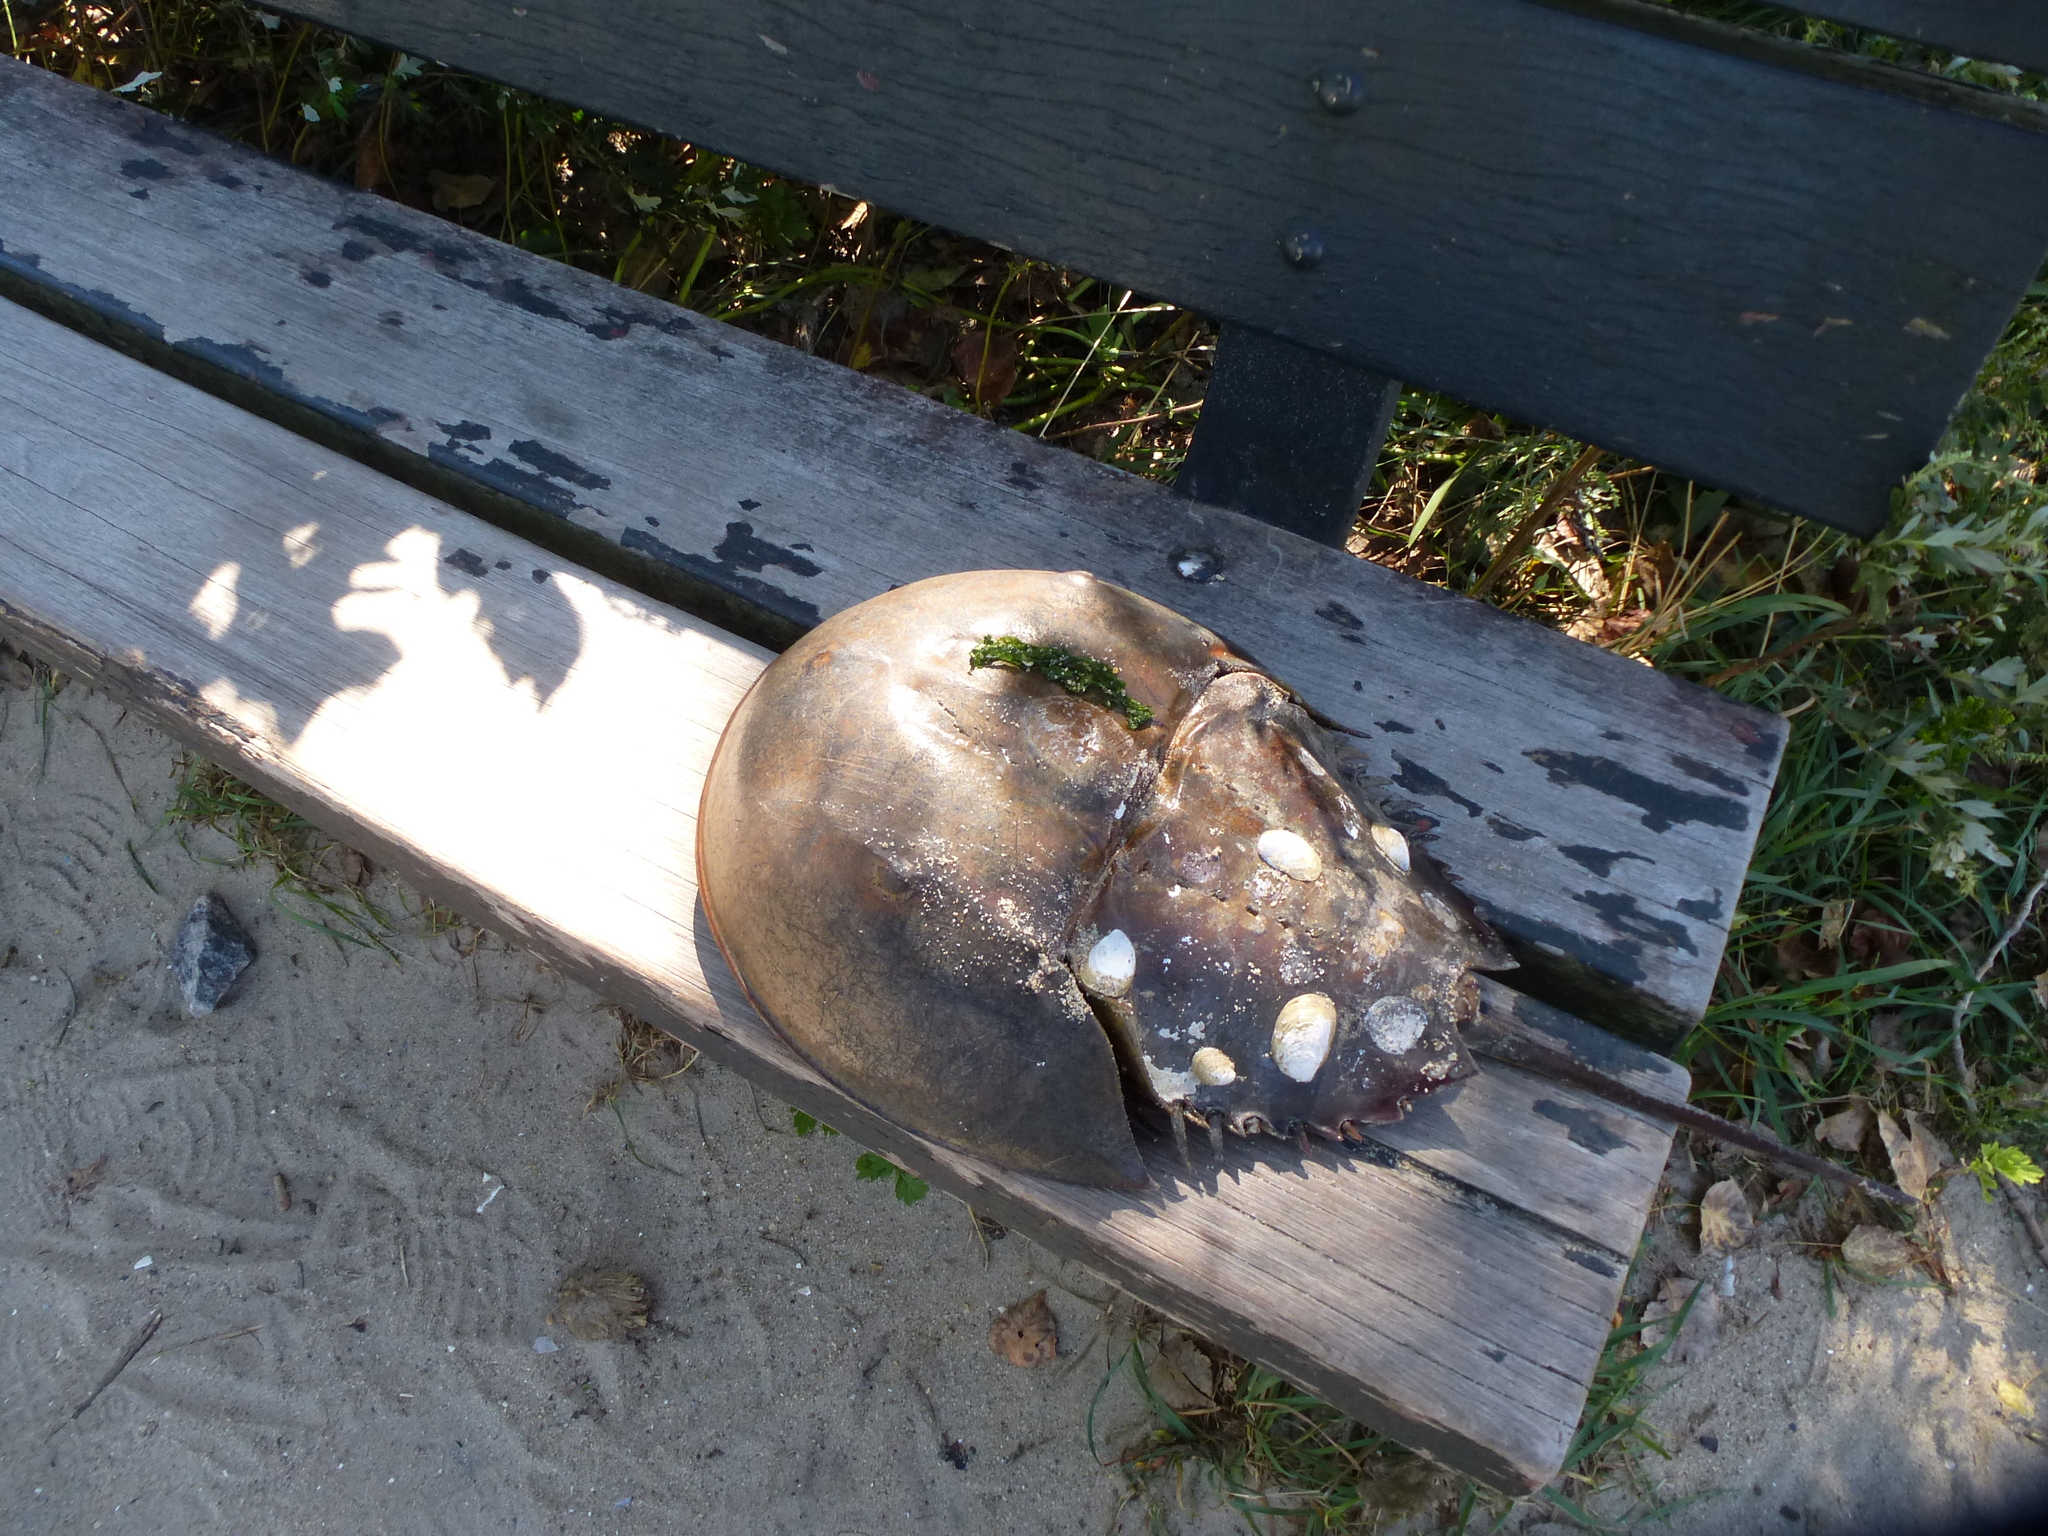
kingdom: Animalia
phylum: Arthropoda
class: Merostomata
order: Xiphosurida
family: Limulidae
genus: Limulus
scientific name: Limulus polyphemus
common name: Horseshoe crab
